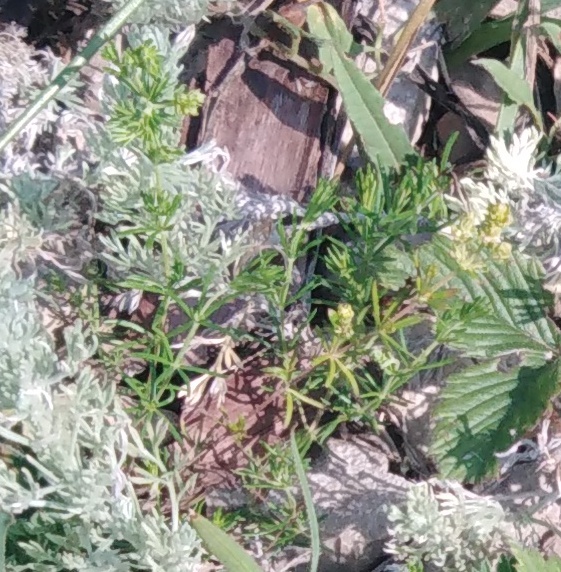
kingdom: Plantae
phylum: Tracheophyta
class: Magnoliopsida
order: Gentianales
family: Rubiaceae
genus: Galium
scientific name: Galium verum
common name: Lady's bedstraw
